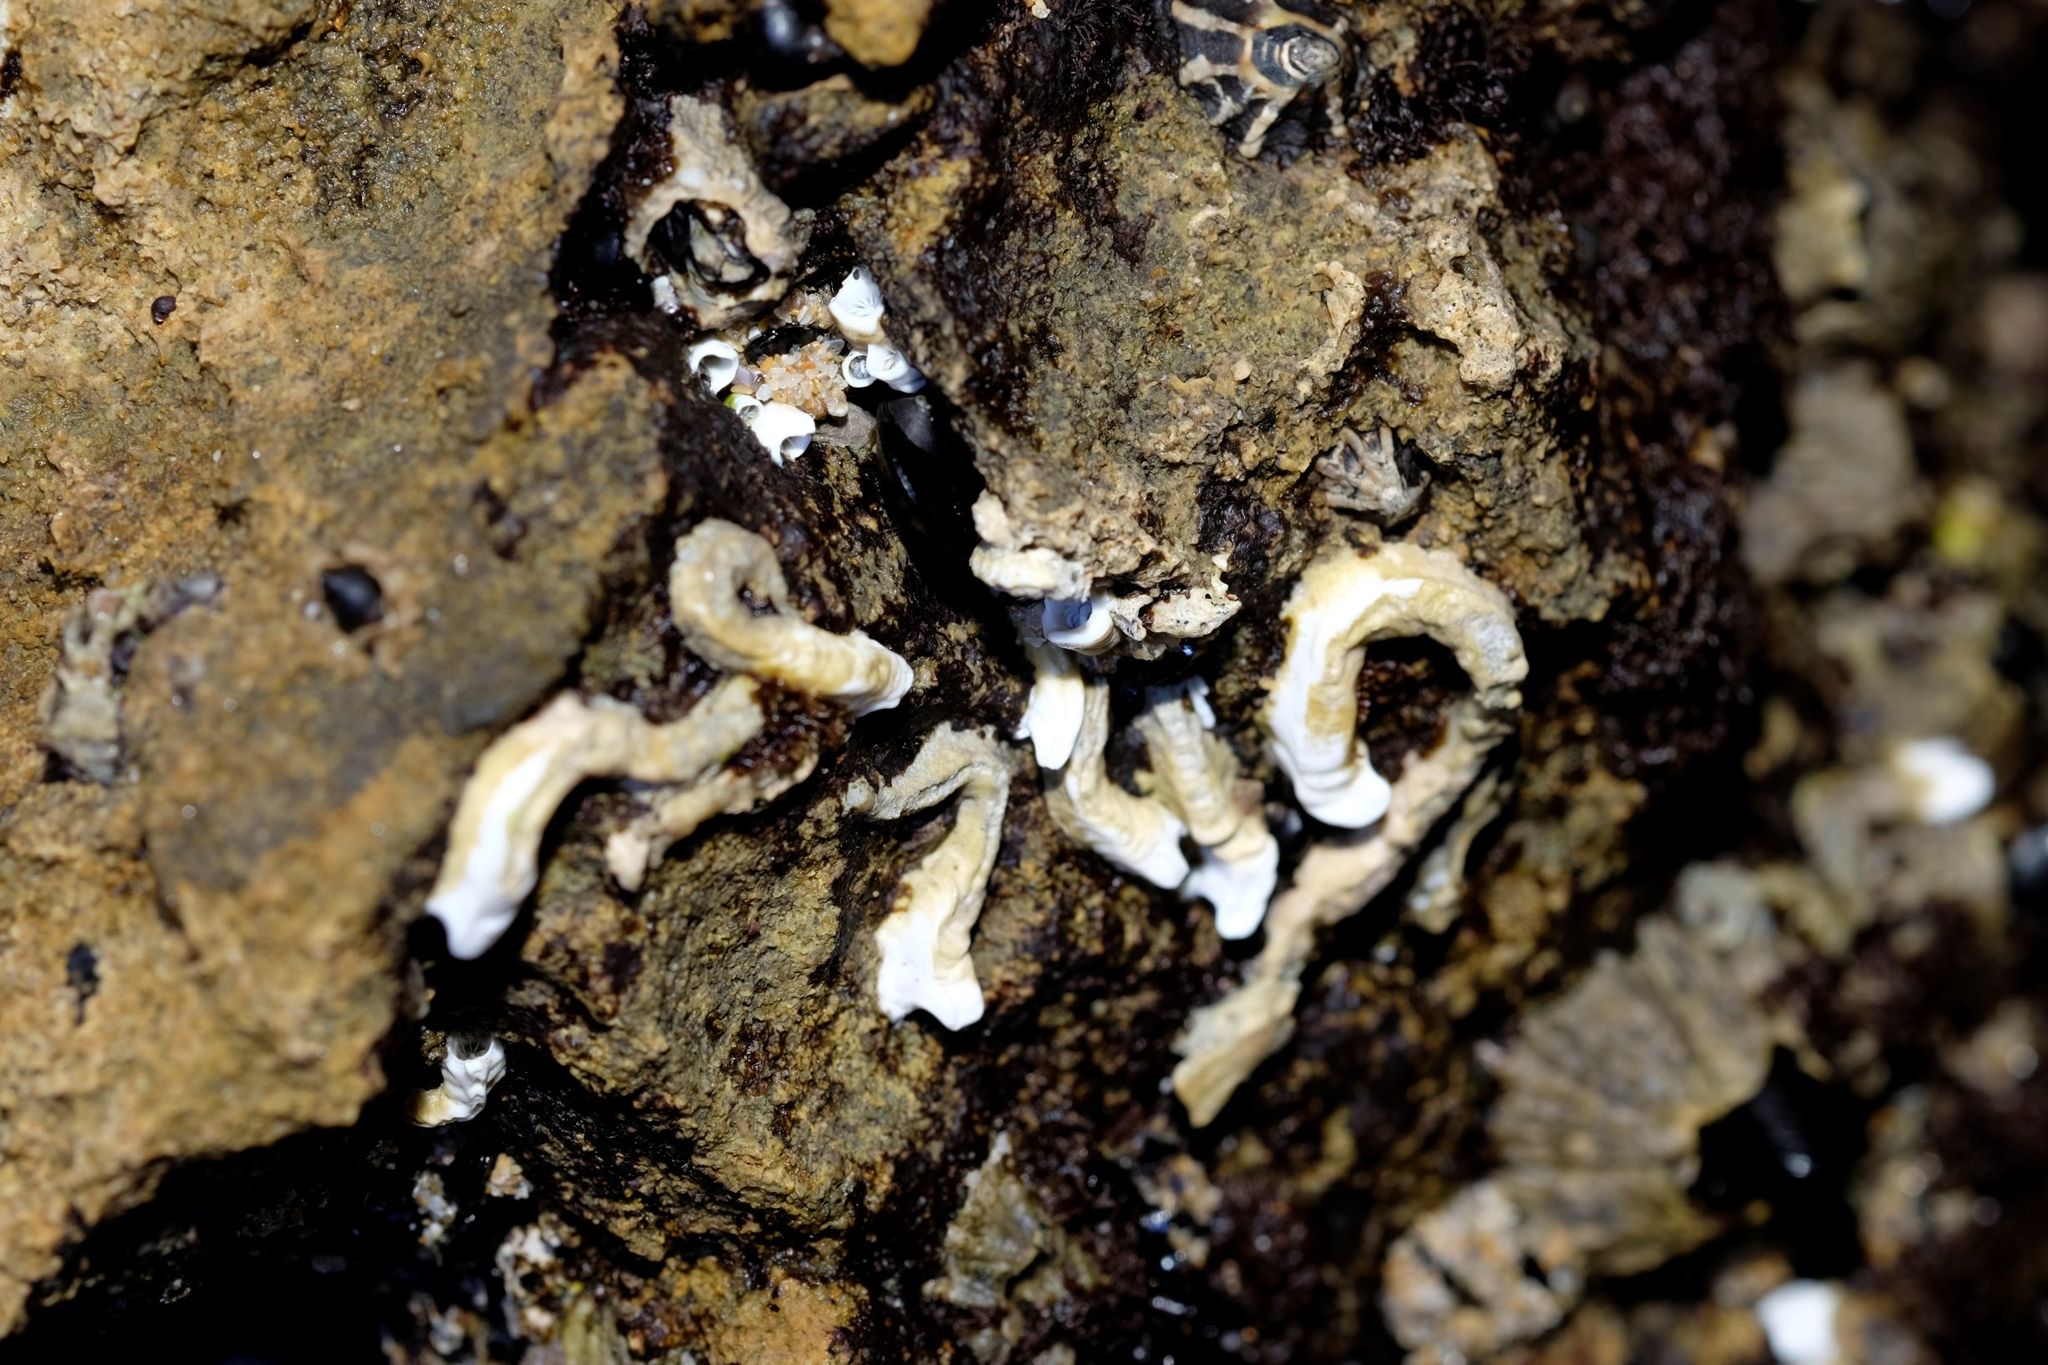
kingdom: Animalia
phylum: Annelida
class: Polychaeta
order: Sabellida
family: Serpulidae
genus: Galeolaria
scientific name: Galeolaria caespitosa
